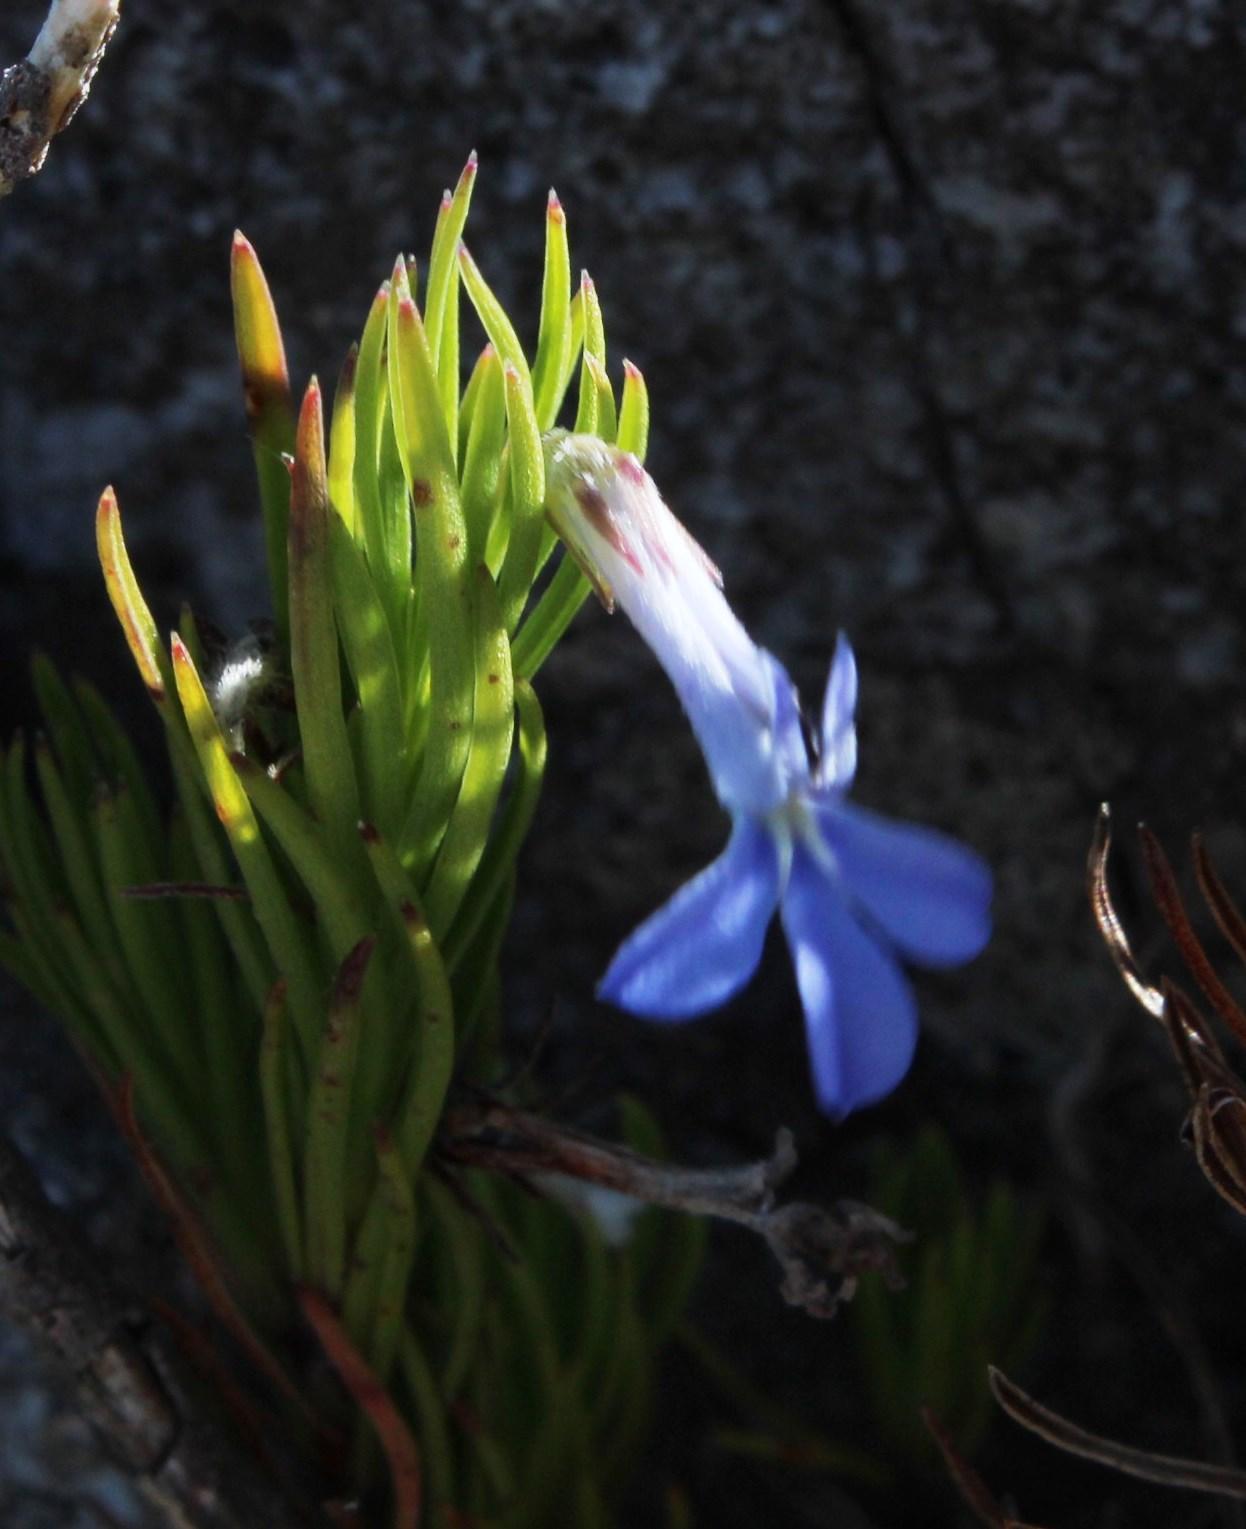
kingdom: Plantae
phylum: Tracheophyta
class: Magnoliopsida
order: Asterales
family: Campanulaceae
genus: Lobelia
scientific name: Lobelia pinifolia
